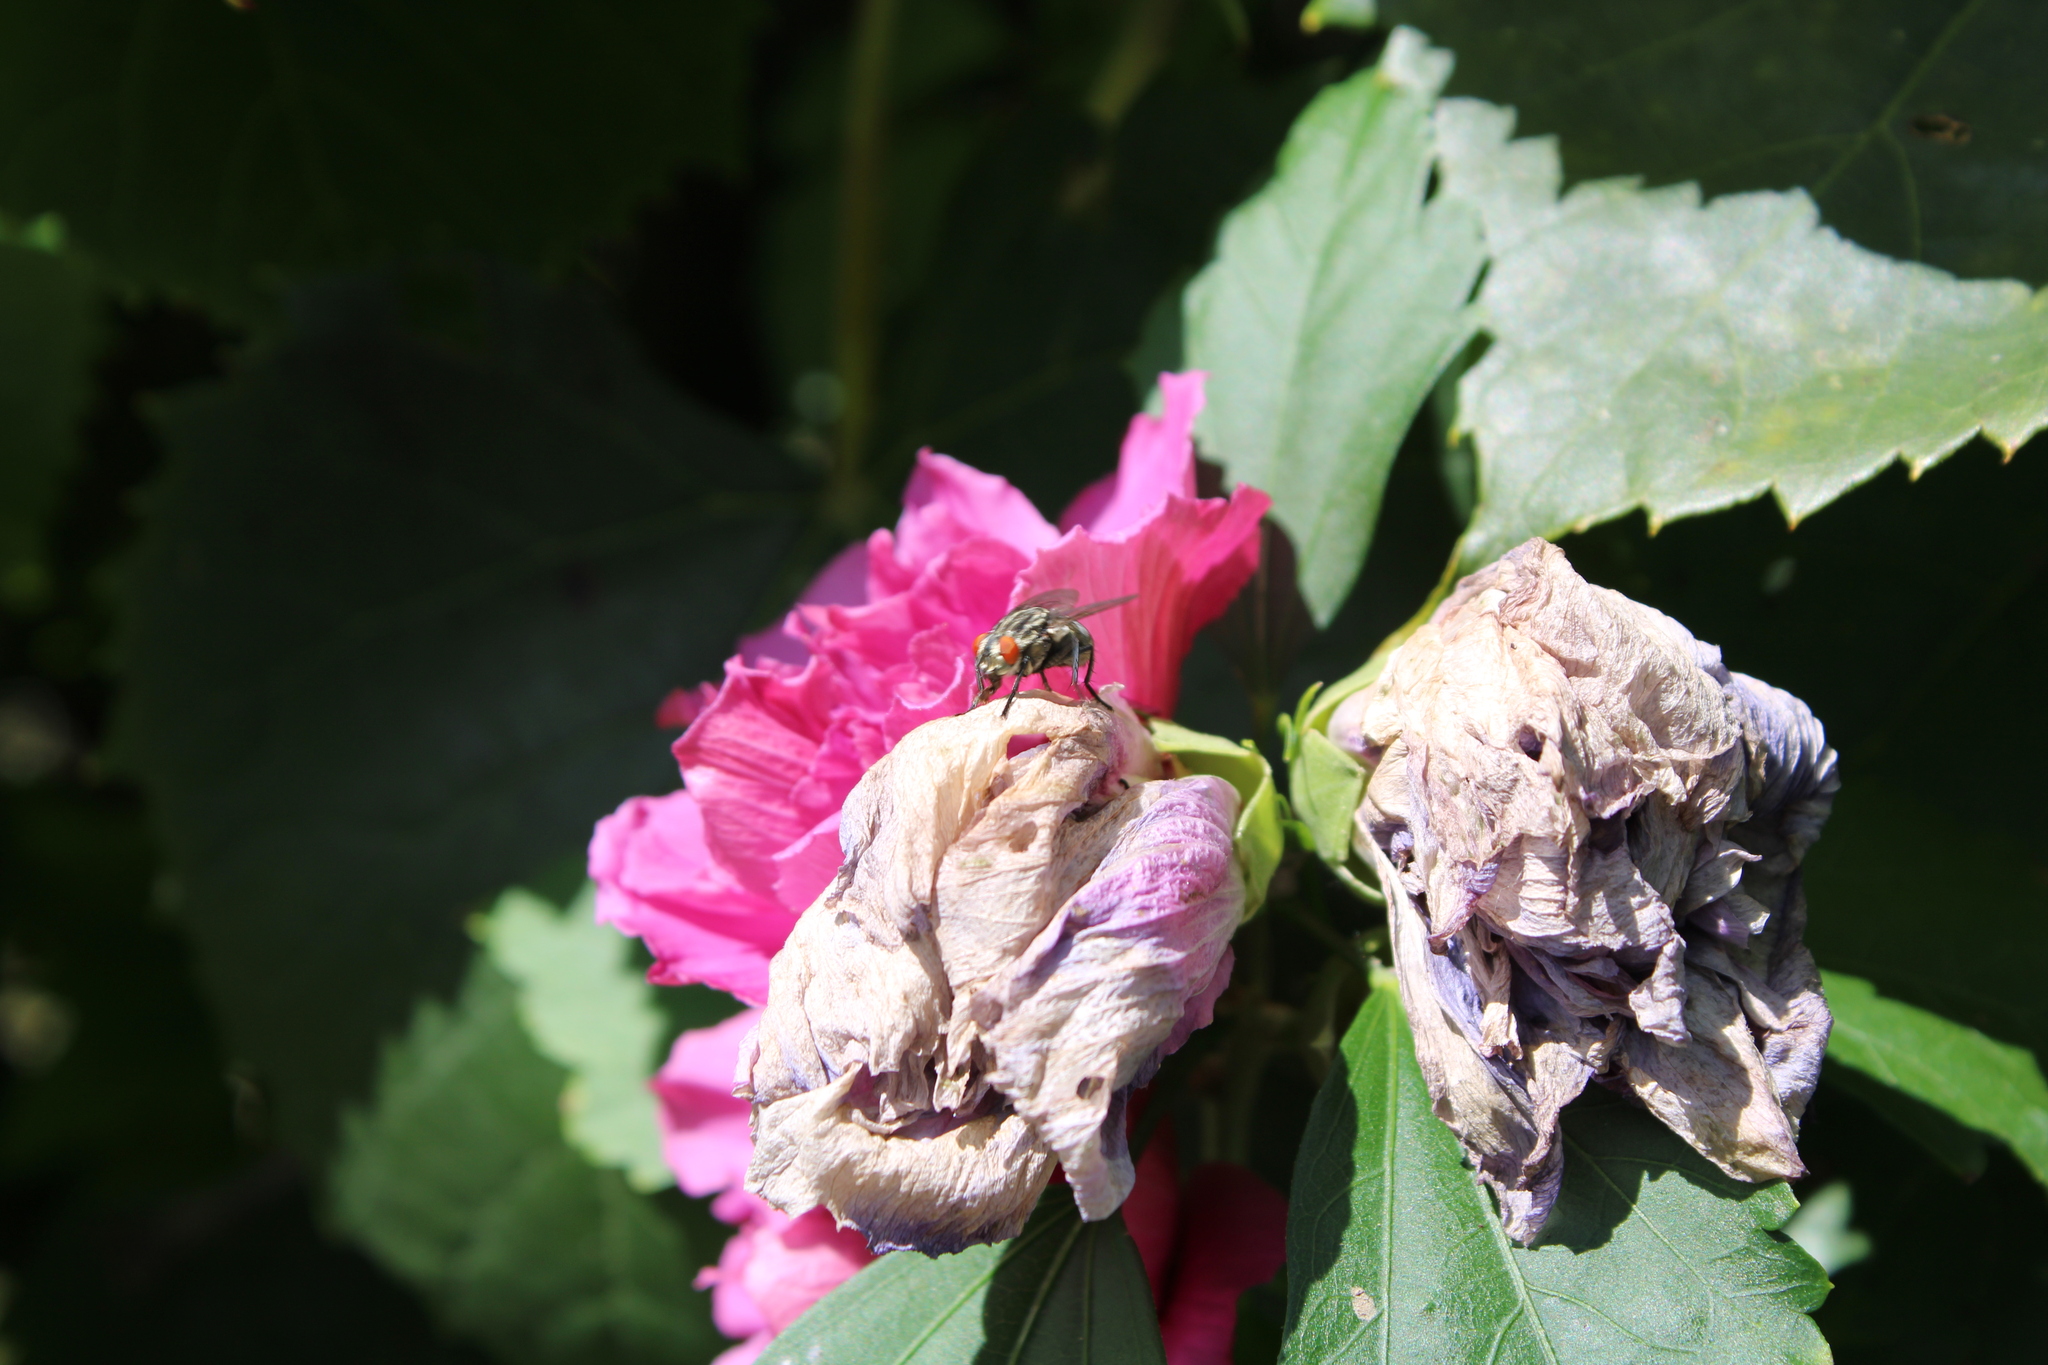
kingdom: Plantae
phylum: Tracheophyta
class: Magnoliopsida
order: Malvales
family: Malvaceae
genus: Hibiscus
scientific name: Hibiscus syriacus
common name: Syrian ketmia
